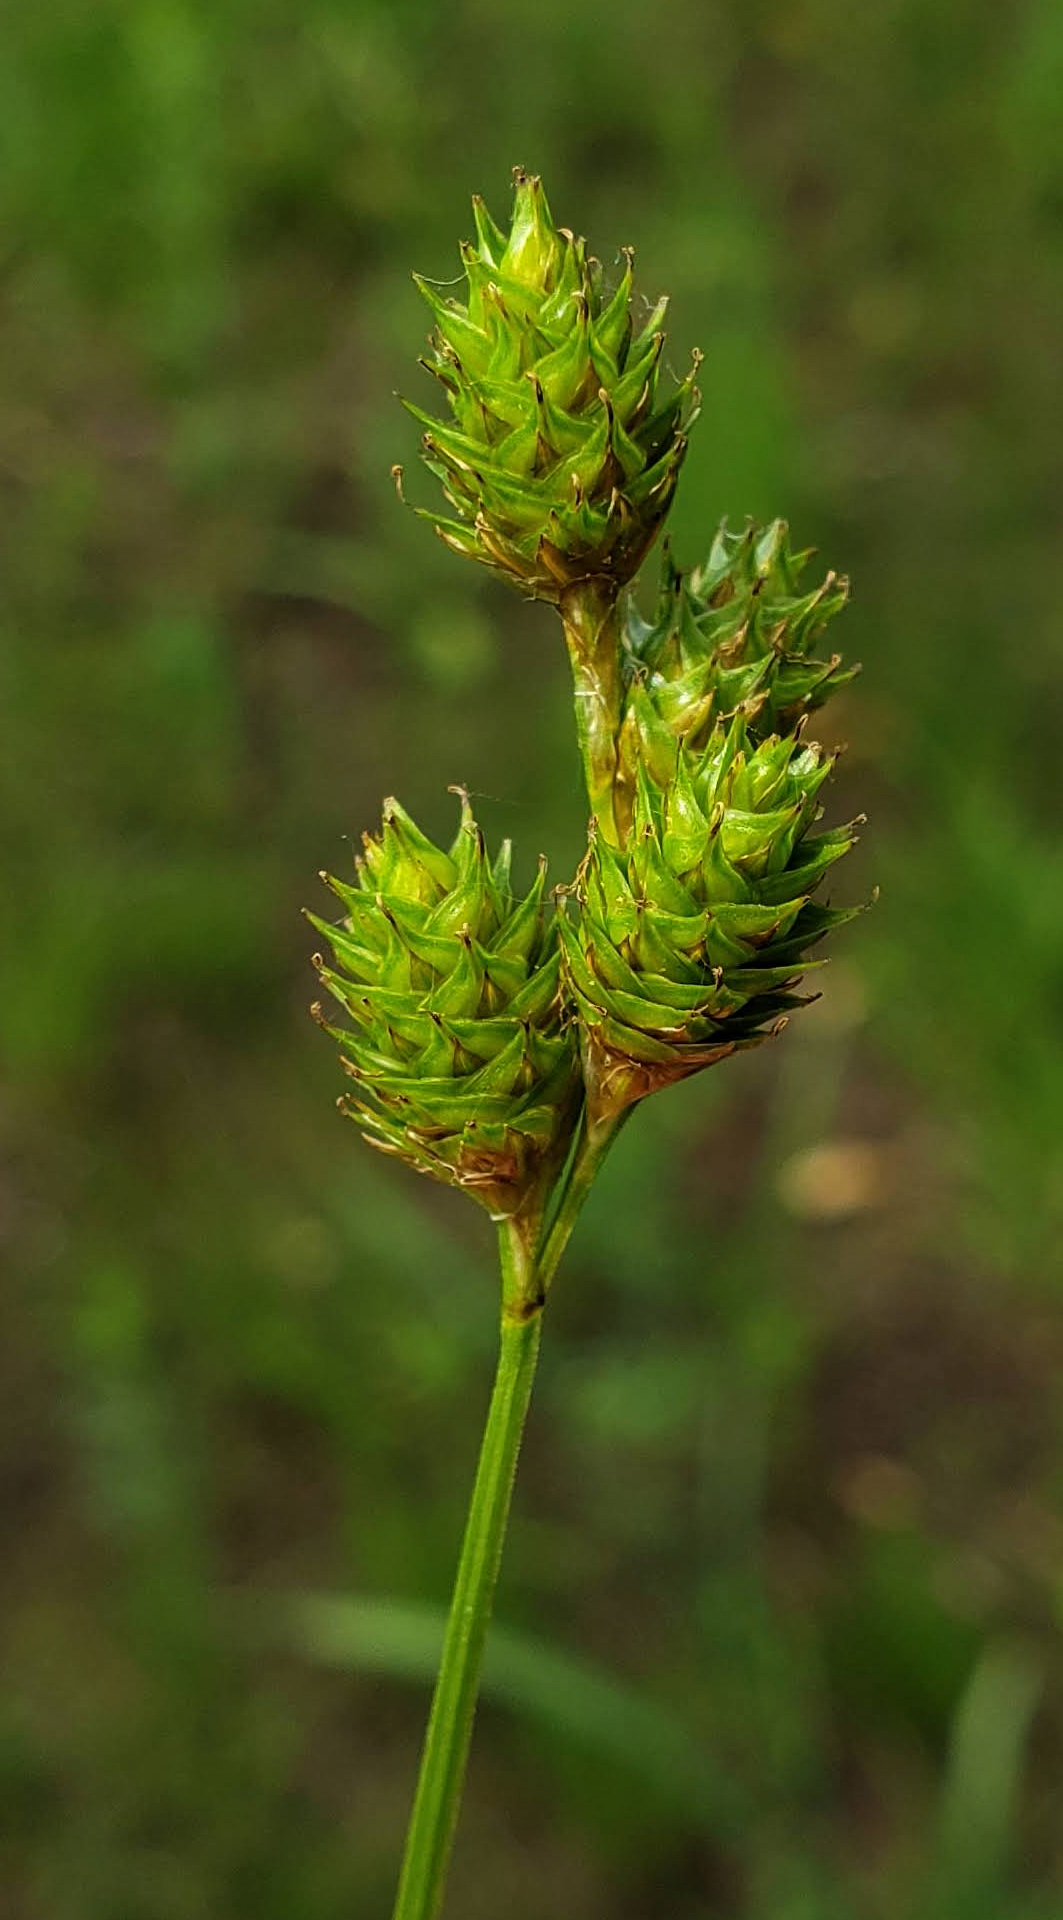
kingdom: Plantae
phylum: Tracheophyta
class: Liliopsida
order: Poales
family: Cyperaceae
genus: Carex
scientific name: Carex brevior
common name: Brevior sedge
